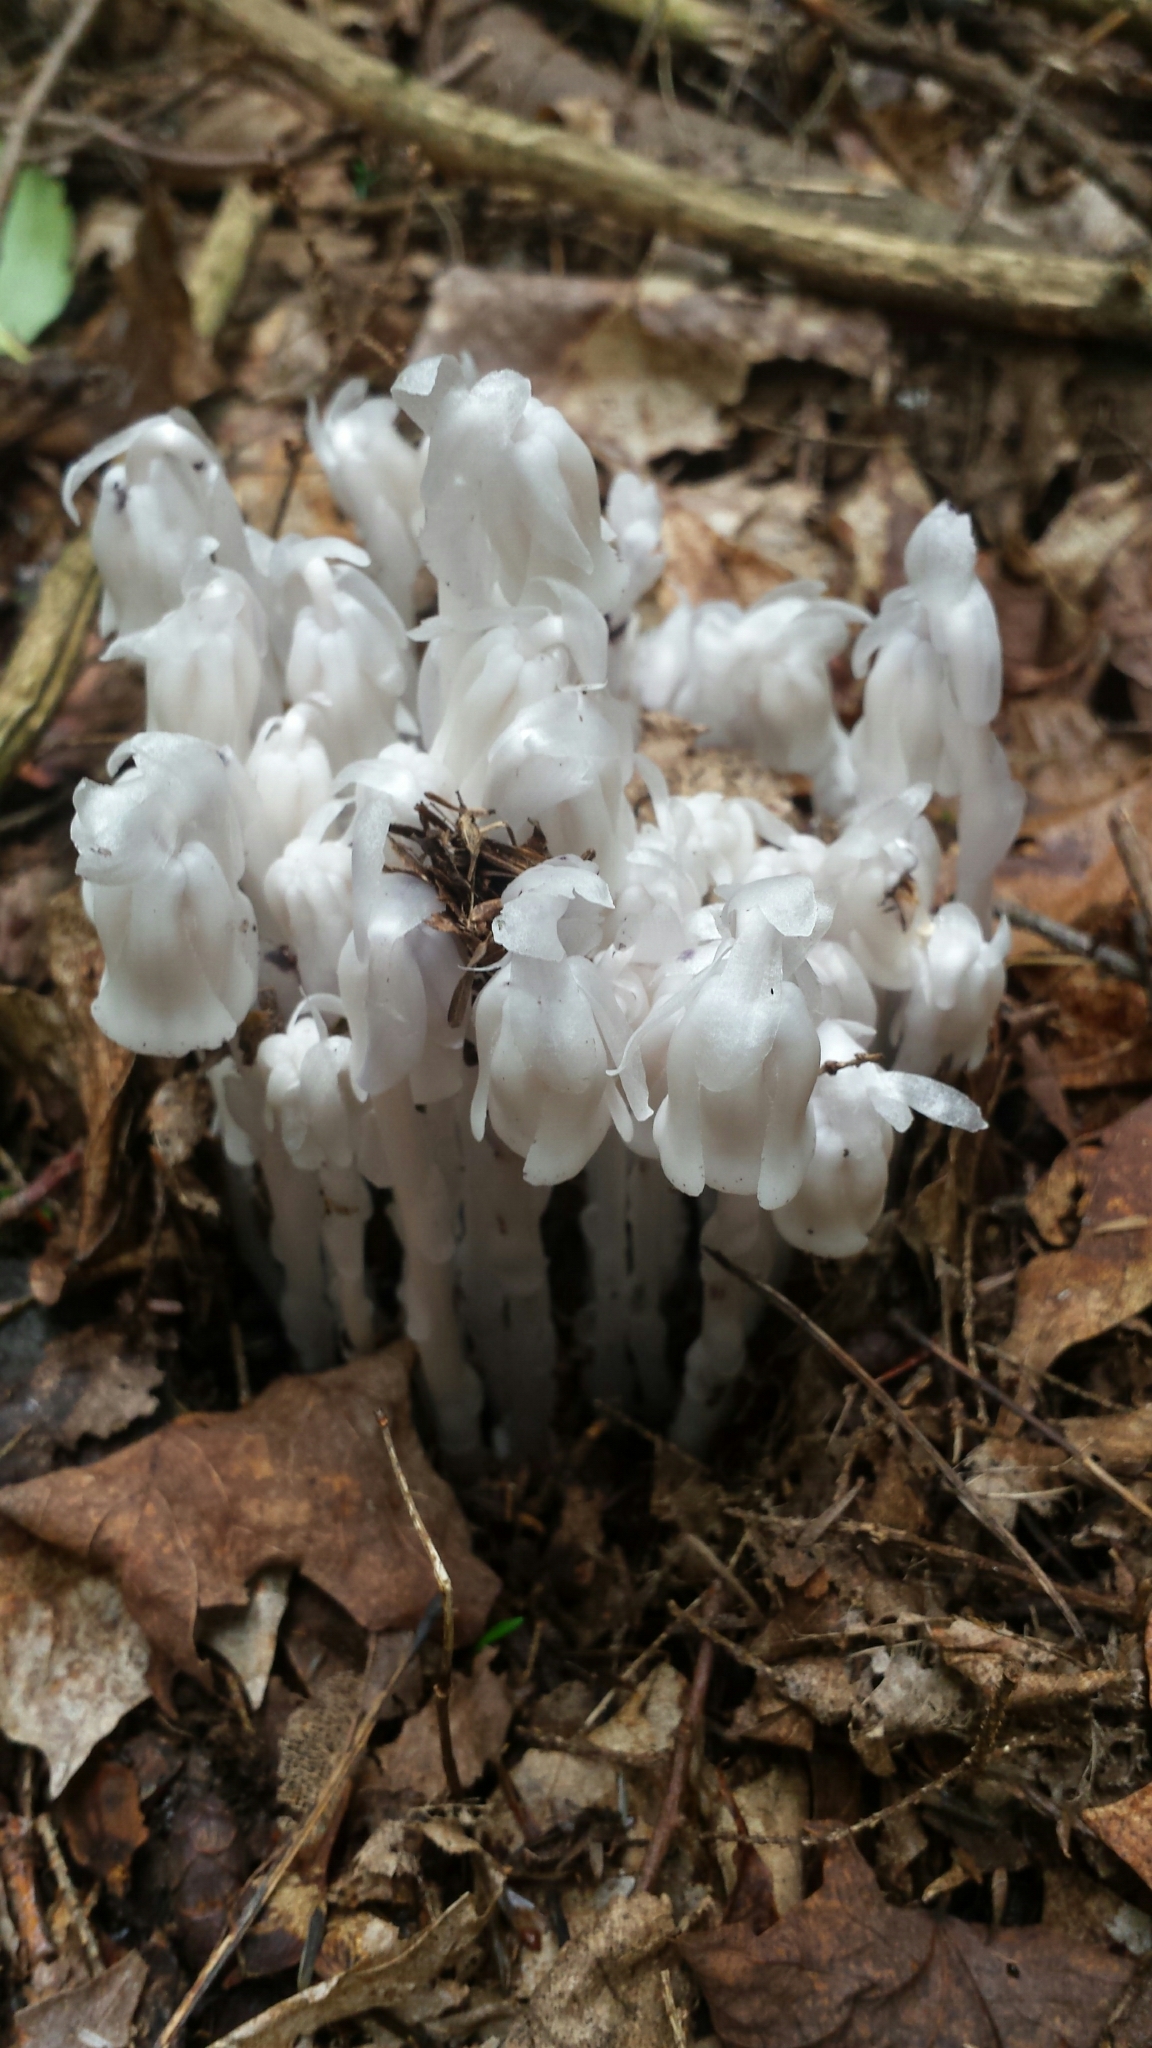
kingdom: Plantae
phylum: Tracheophyta
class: Magnoliopsida
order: Ericales
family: Ericaceae
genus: Monotropa
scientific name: Monotropa uniflora
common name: Convulsion root
